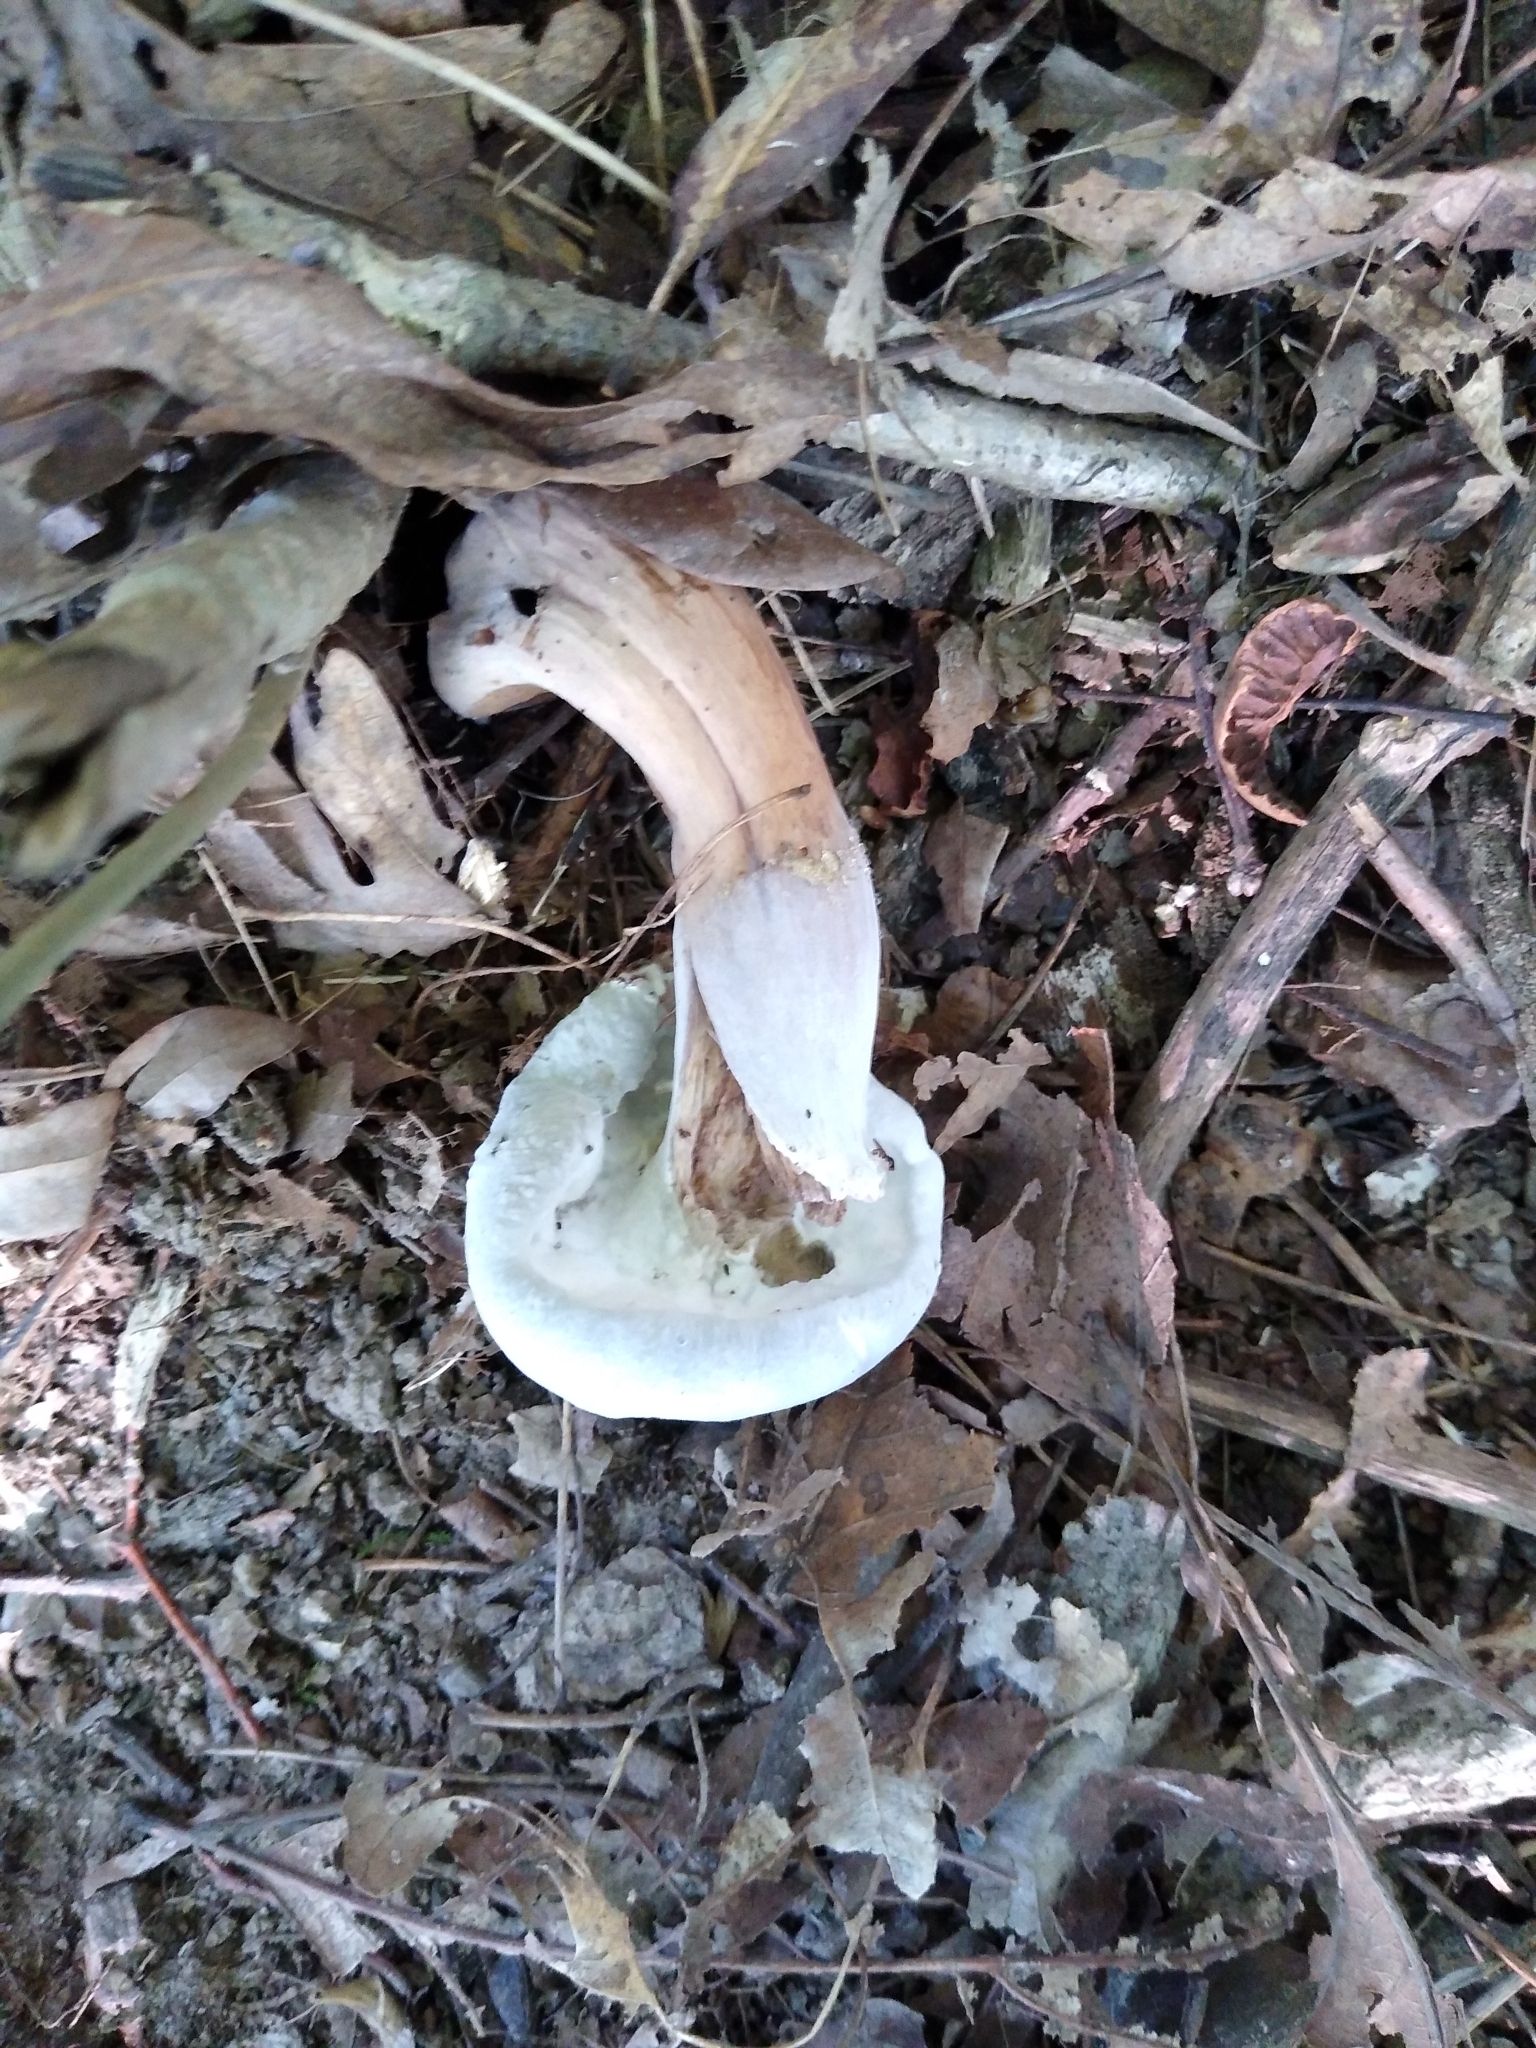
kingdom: Fungi
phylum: Ascomycota
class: Sordariomycetes
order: Hypocreales
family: Hypocreaceae
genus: Hypomyces
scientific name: Hypomyces completus
